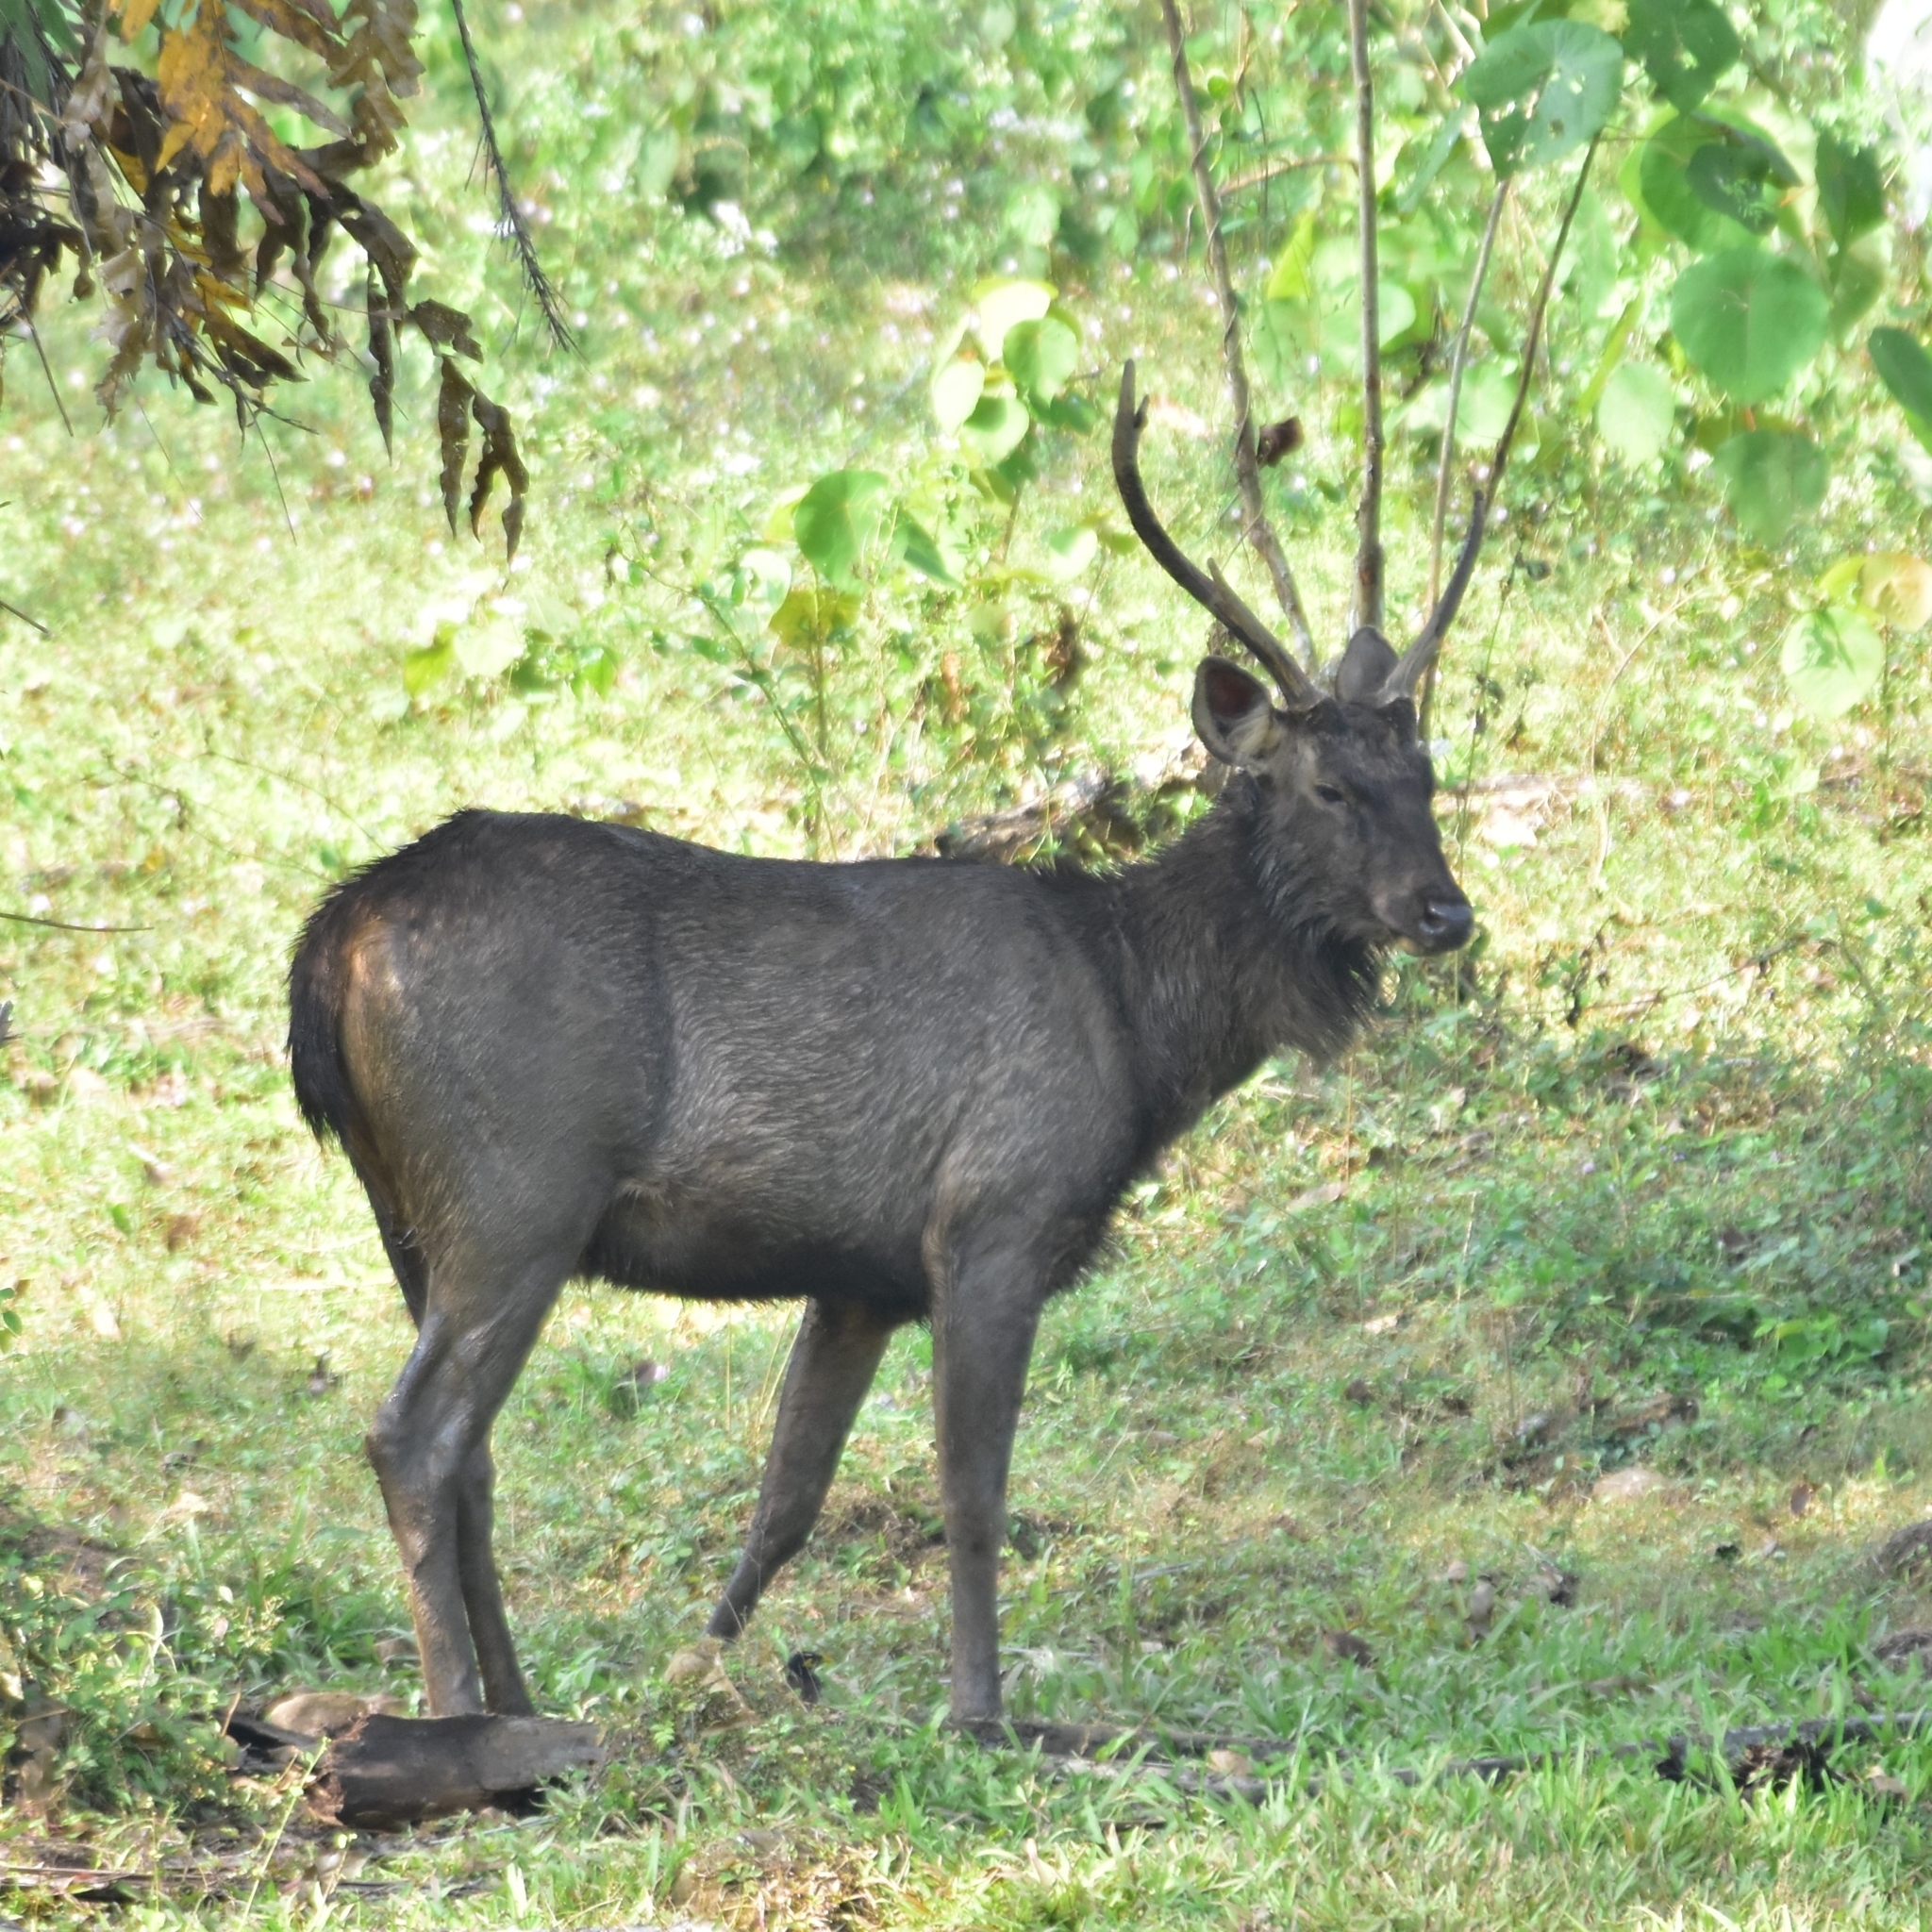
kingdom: Animalia
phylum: Chordata
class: Mammalia
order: Artiodactyla
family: Cervidae
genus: Rusa
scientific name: Rusa unicolor
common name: Sambar
